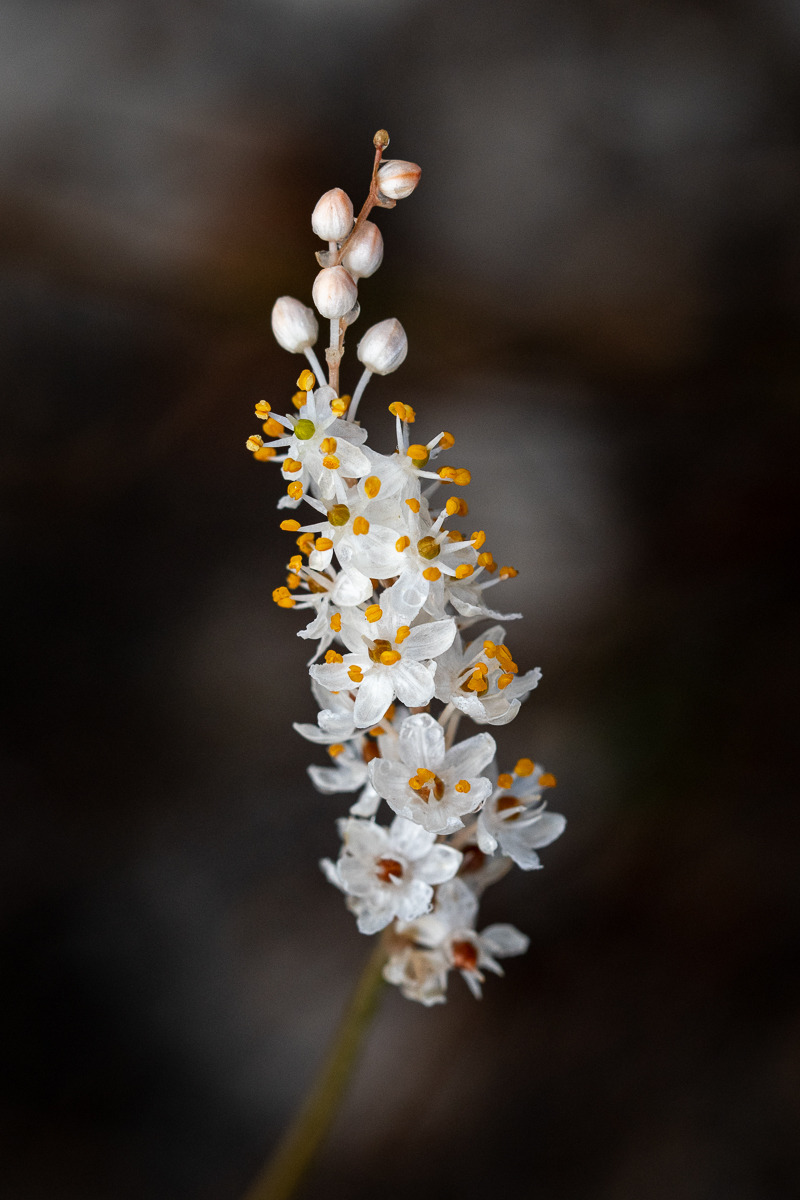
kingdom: Plantae
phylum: Tracheophyta
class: Liliopsida
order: Asparagales
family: Asphodelaceae
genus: Bulbinella
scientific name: Bulbinella trinervis
